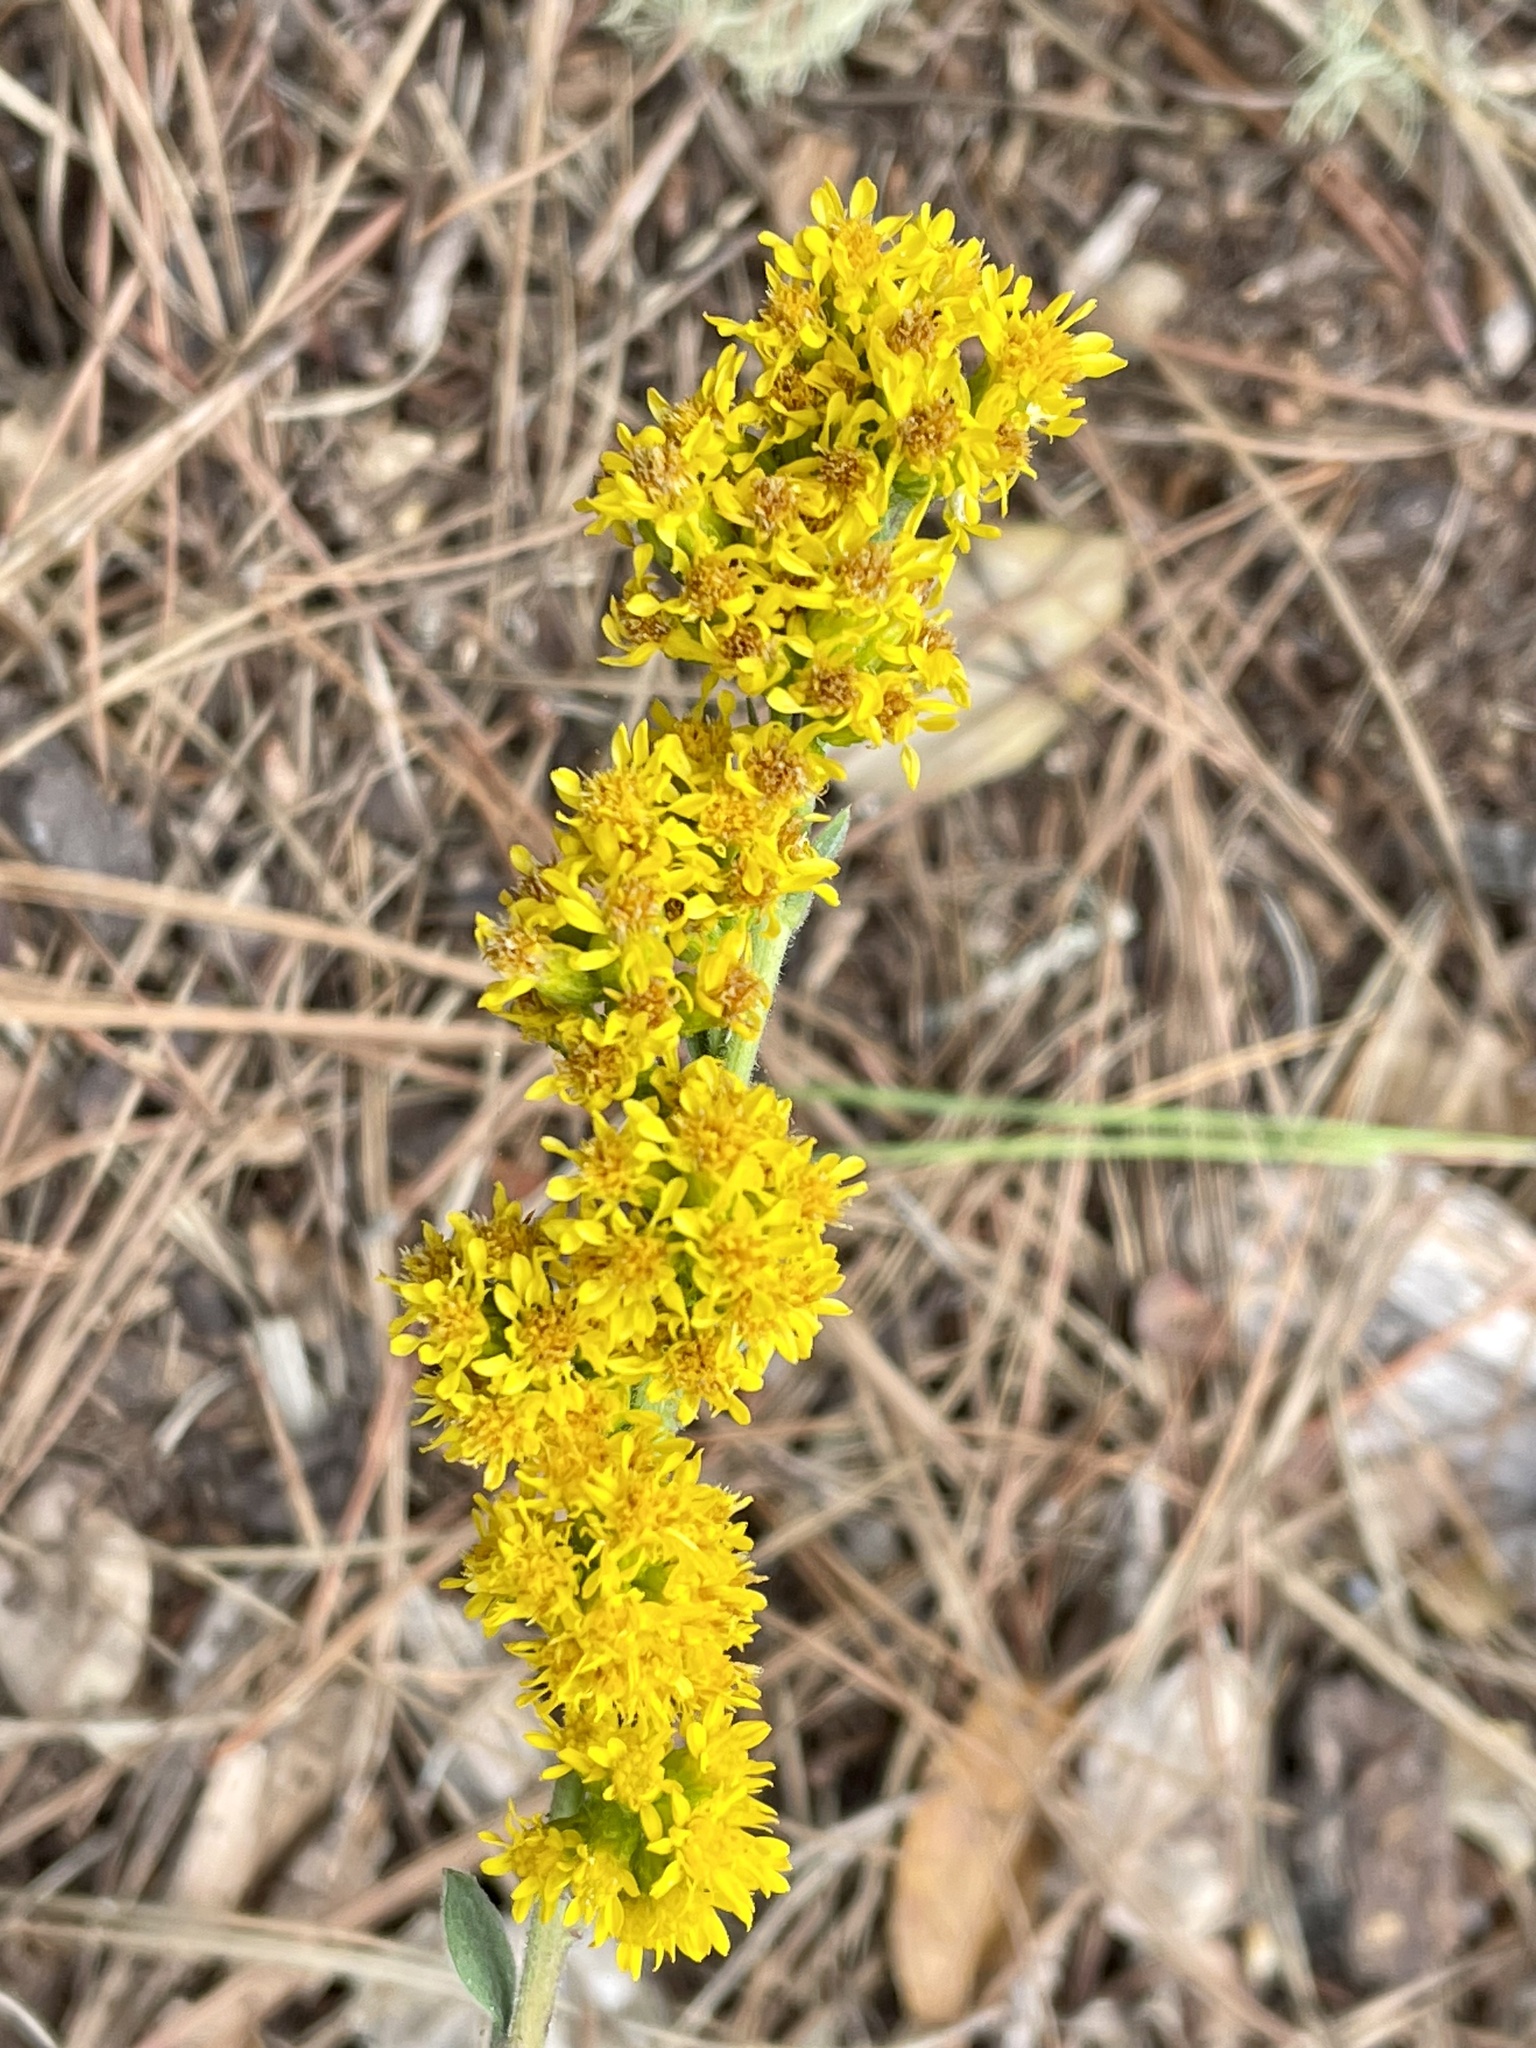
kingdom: Plantae
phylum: Tracheophyta
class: Magnoliopsida
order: Asterales
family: Asteraceae
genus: Solidago
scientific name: Solidago californica
